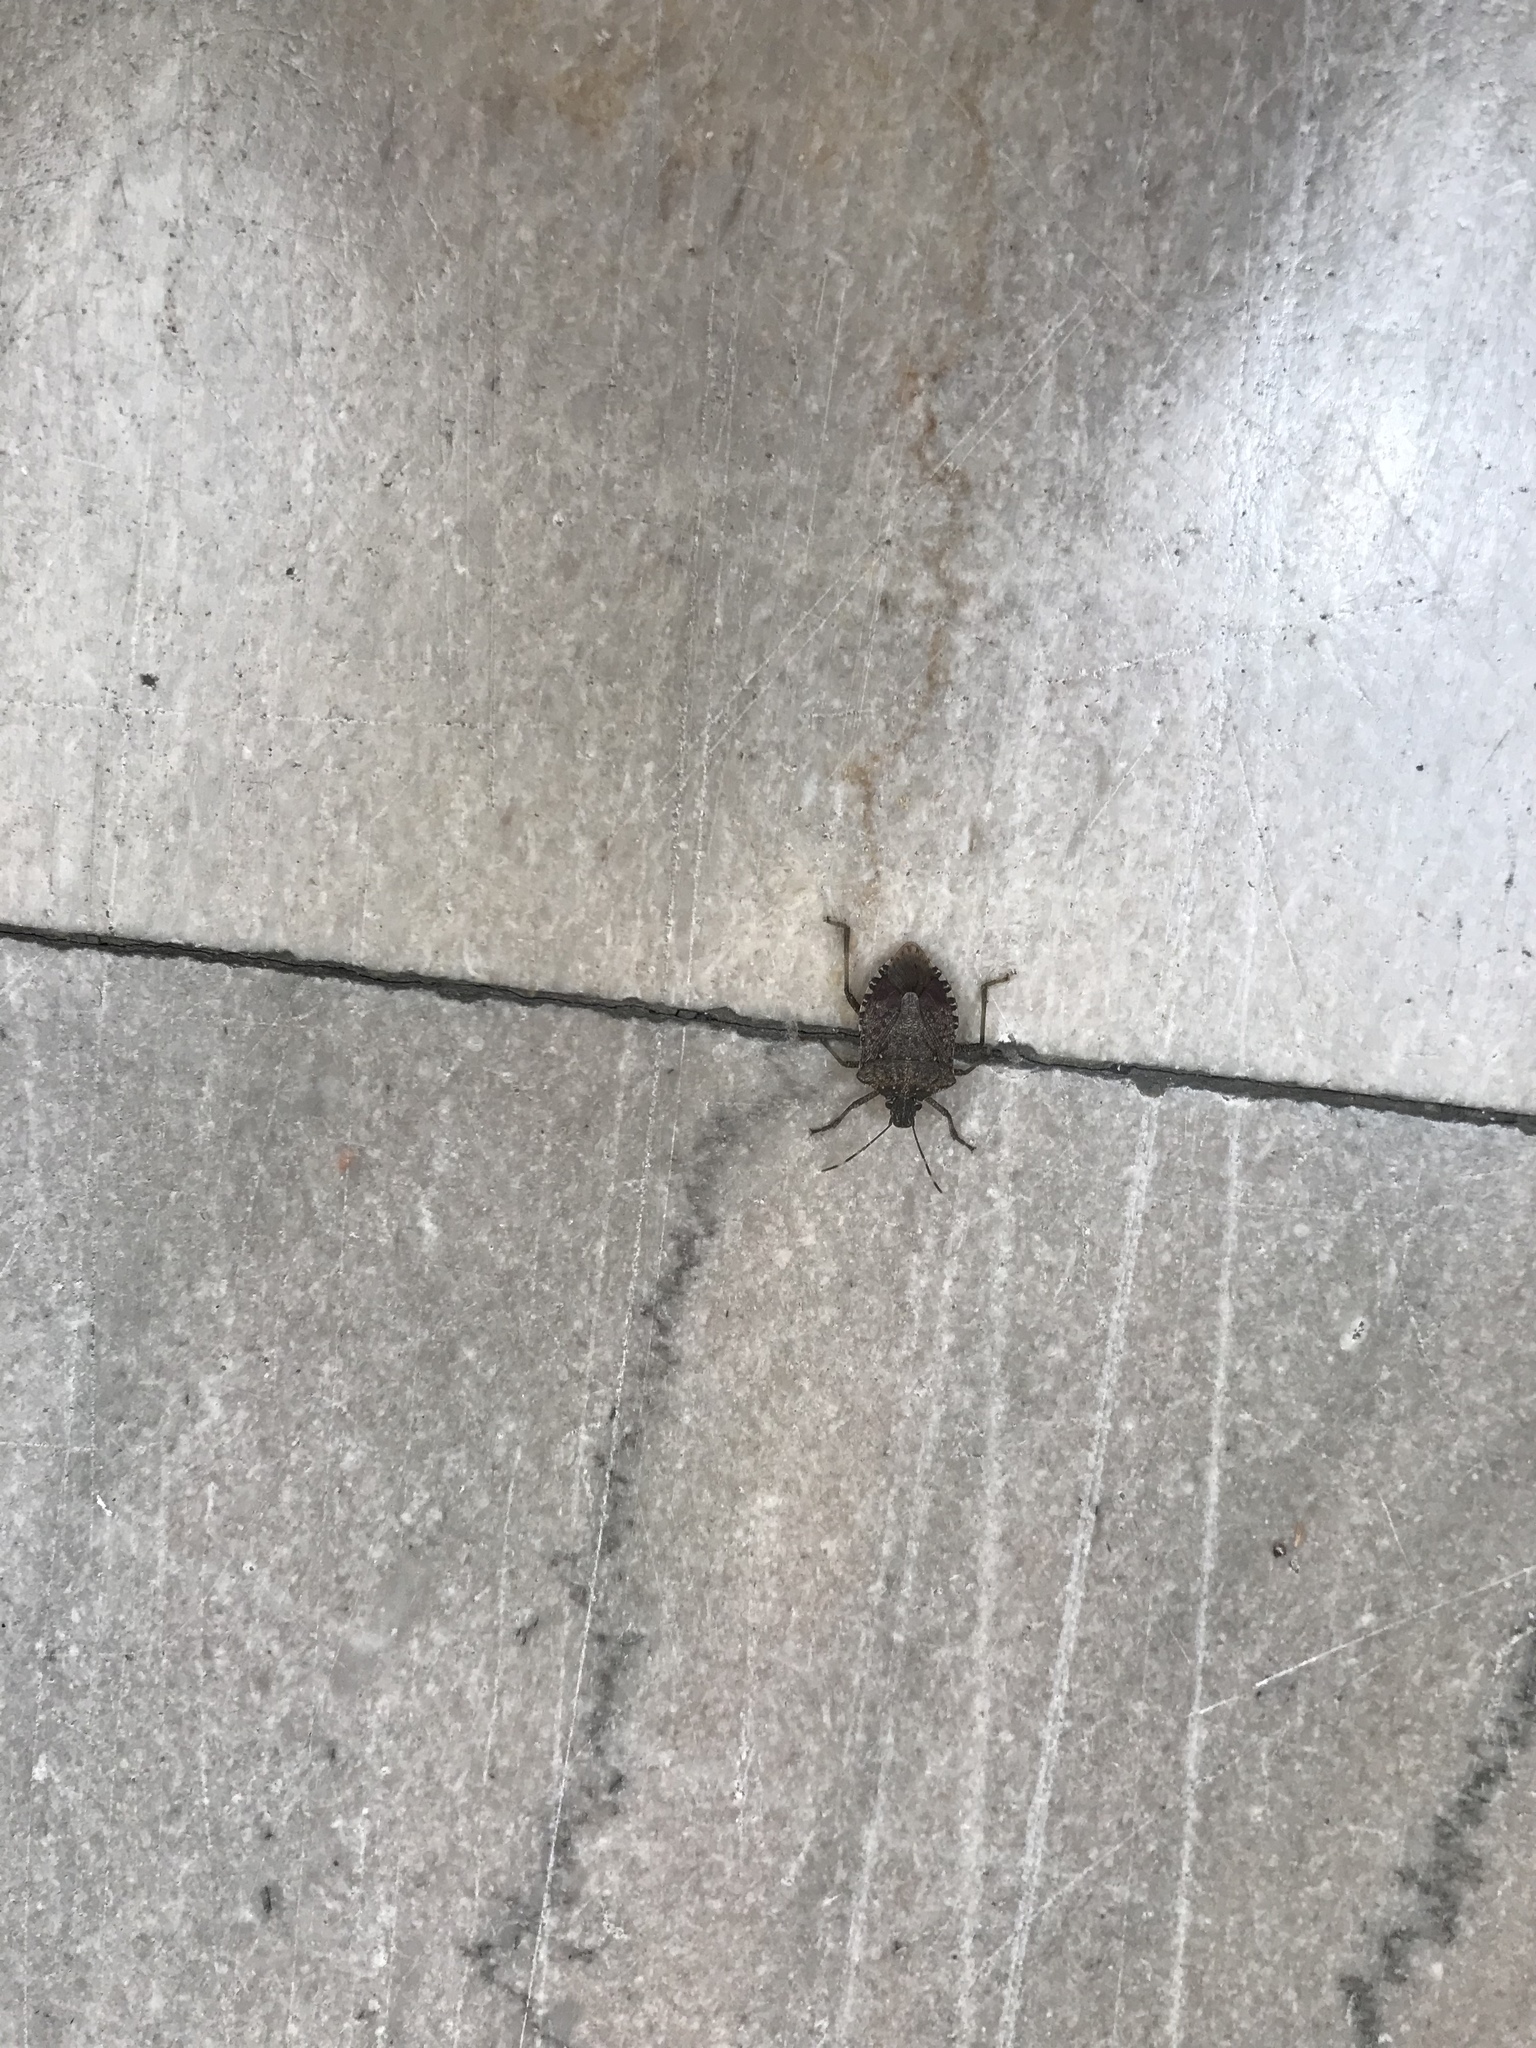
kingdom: Animalia
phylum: Arthropoda
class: Insecta
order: Hemiptera
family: Pentatomidae
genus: Halyomorpha
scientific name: Halyomorpha halys
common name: Brown marmorated stink bug
